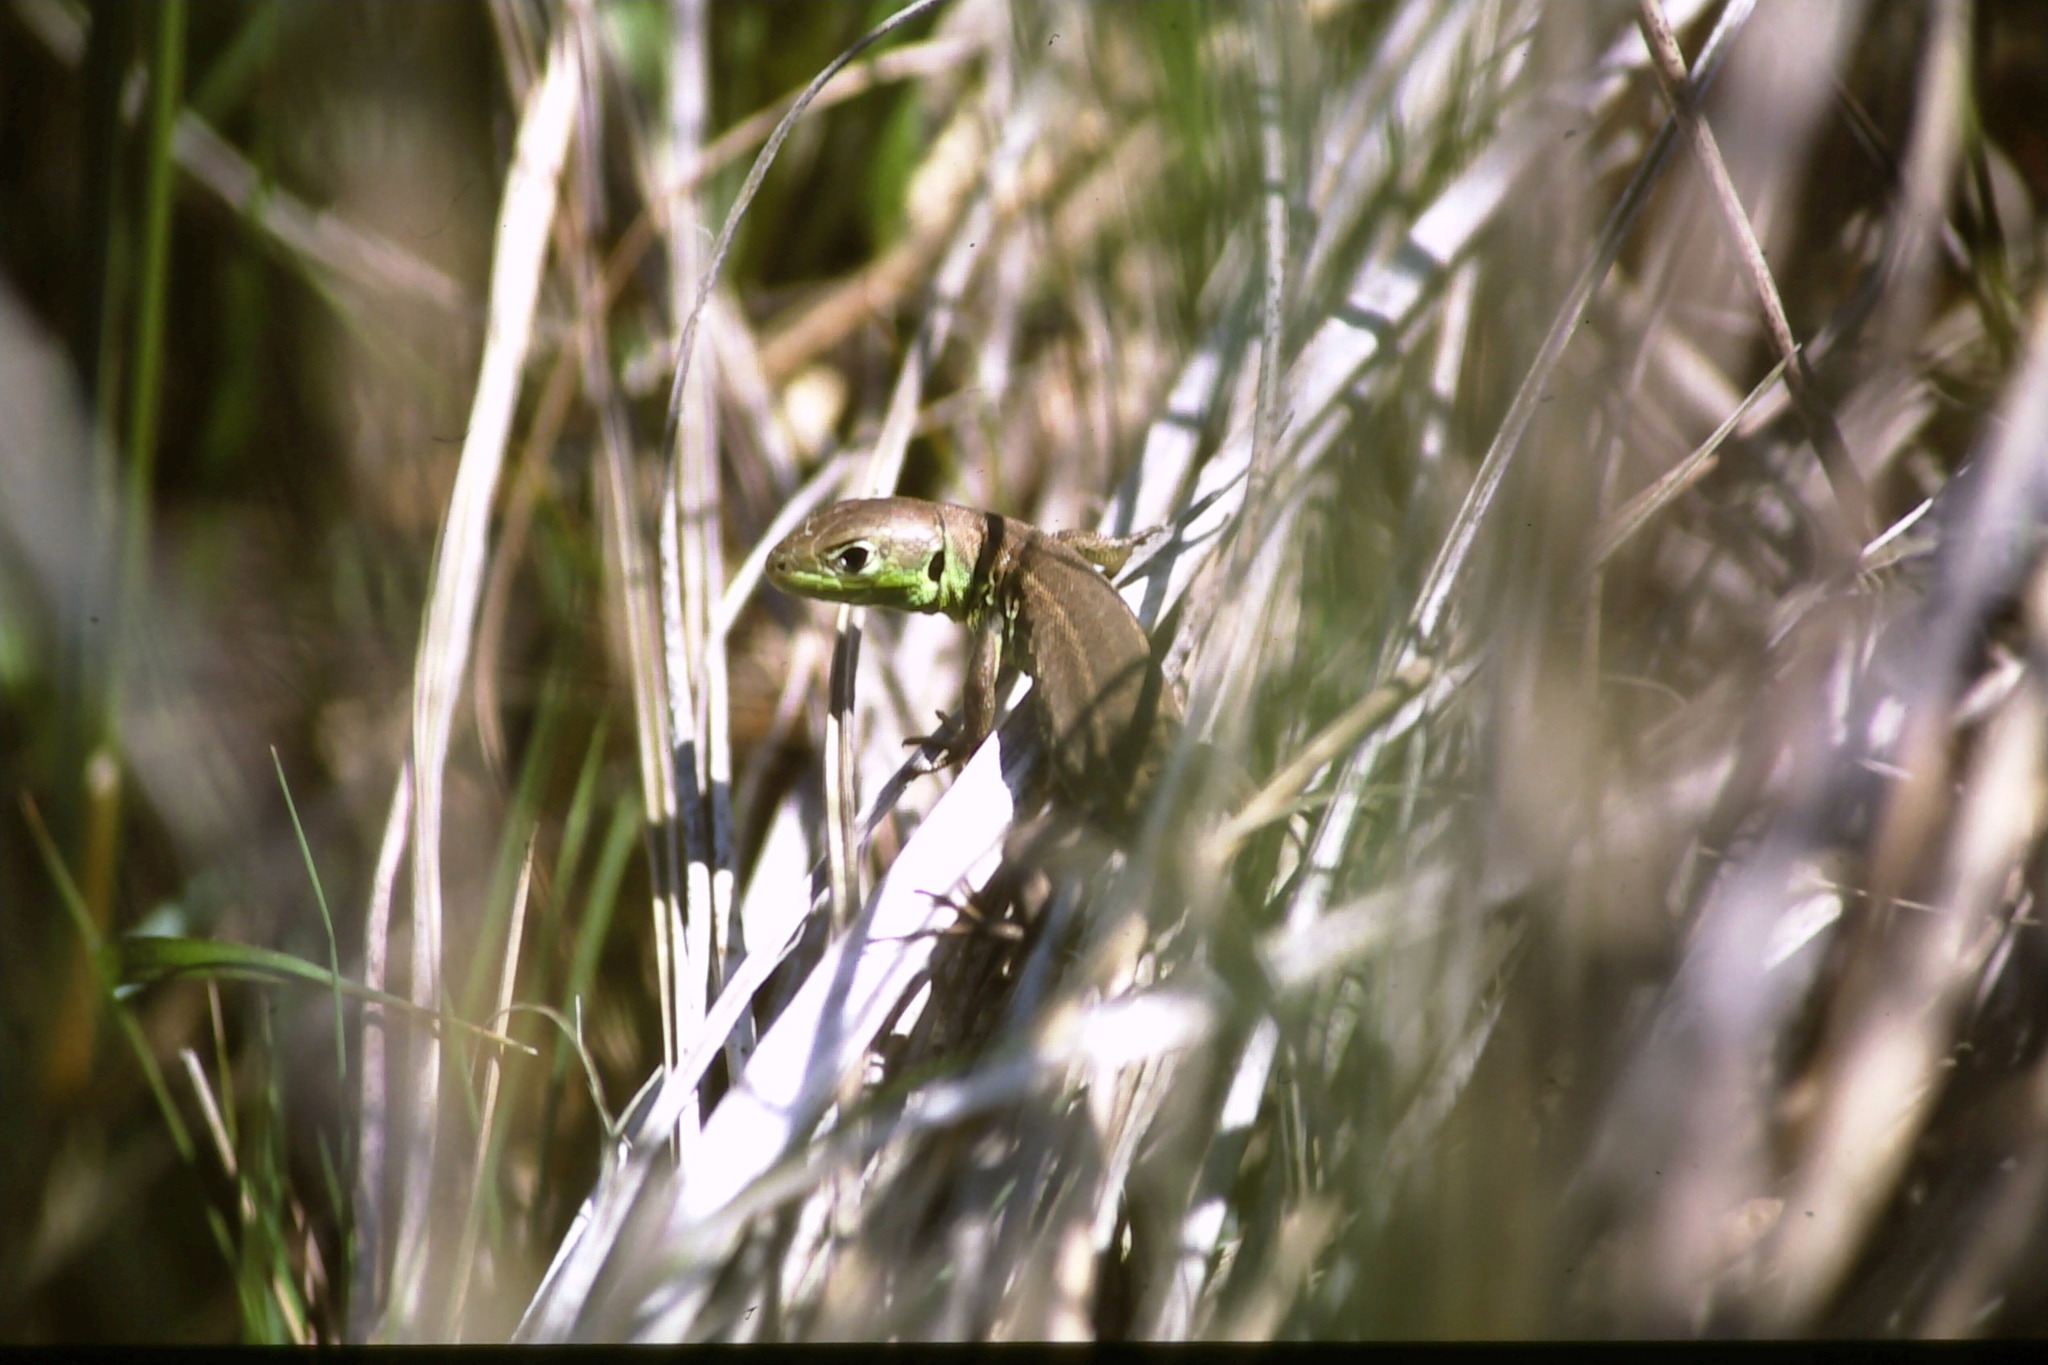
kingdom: Animalia
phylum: Chordata
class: Squamata
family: Lacertidae
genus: Lacerta
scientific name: Lacerta bilineata
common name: Western green lizard
